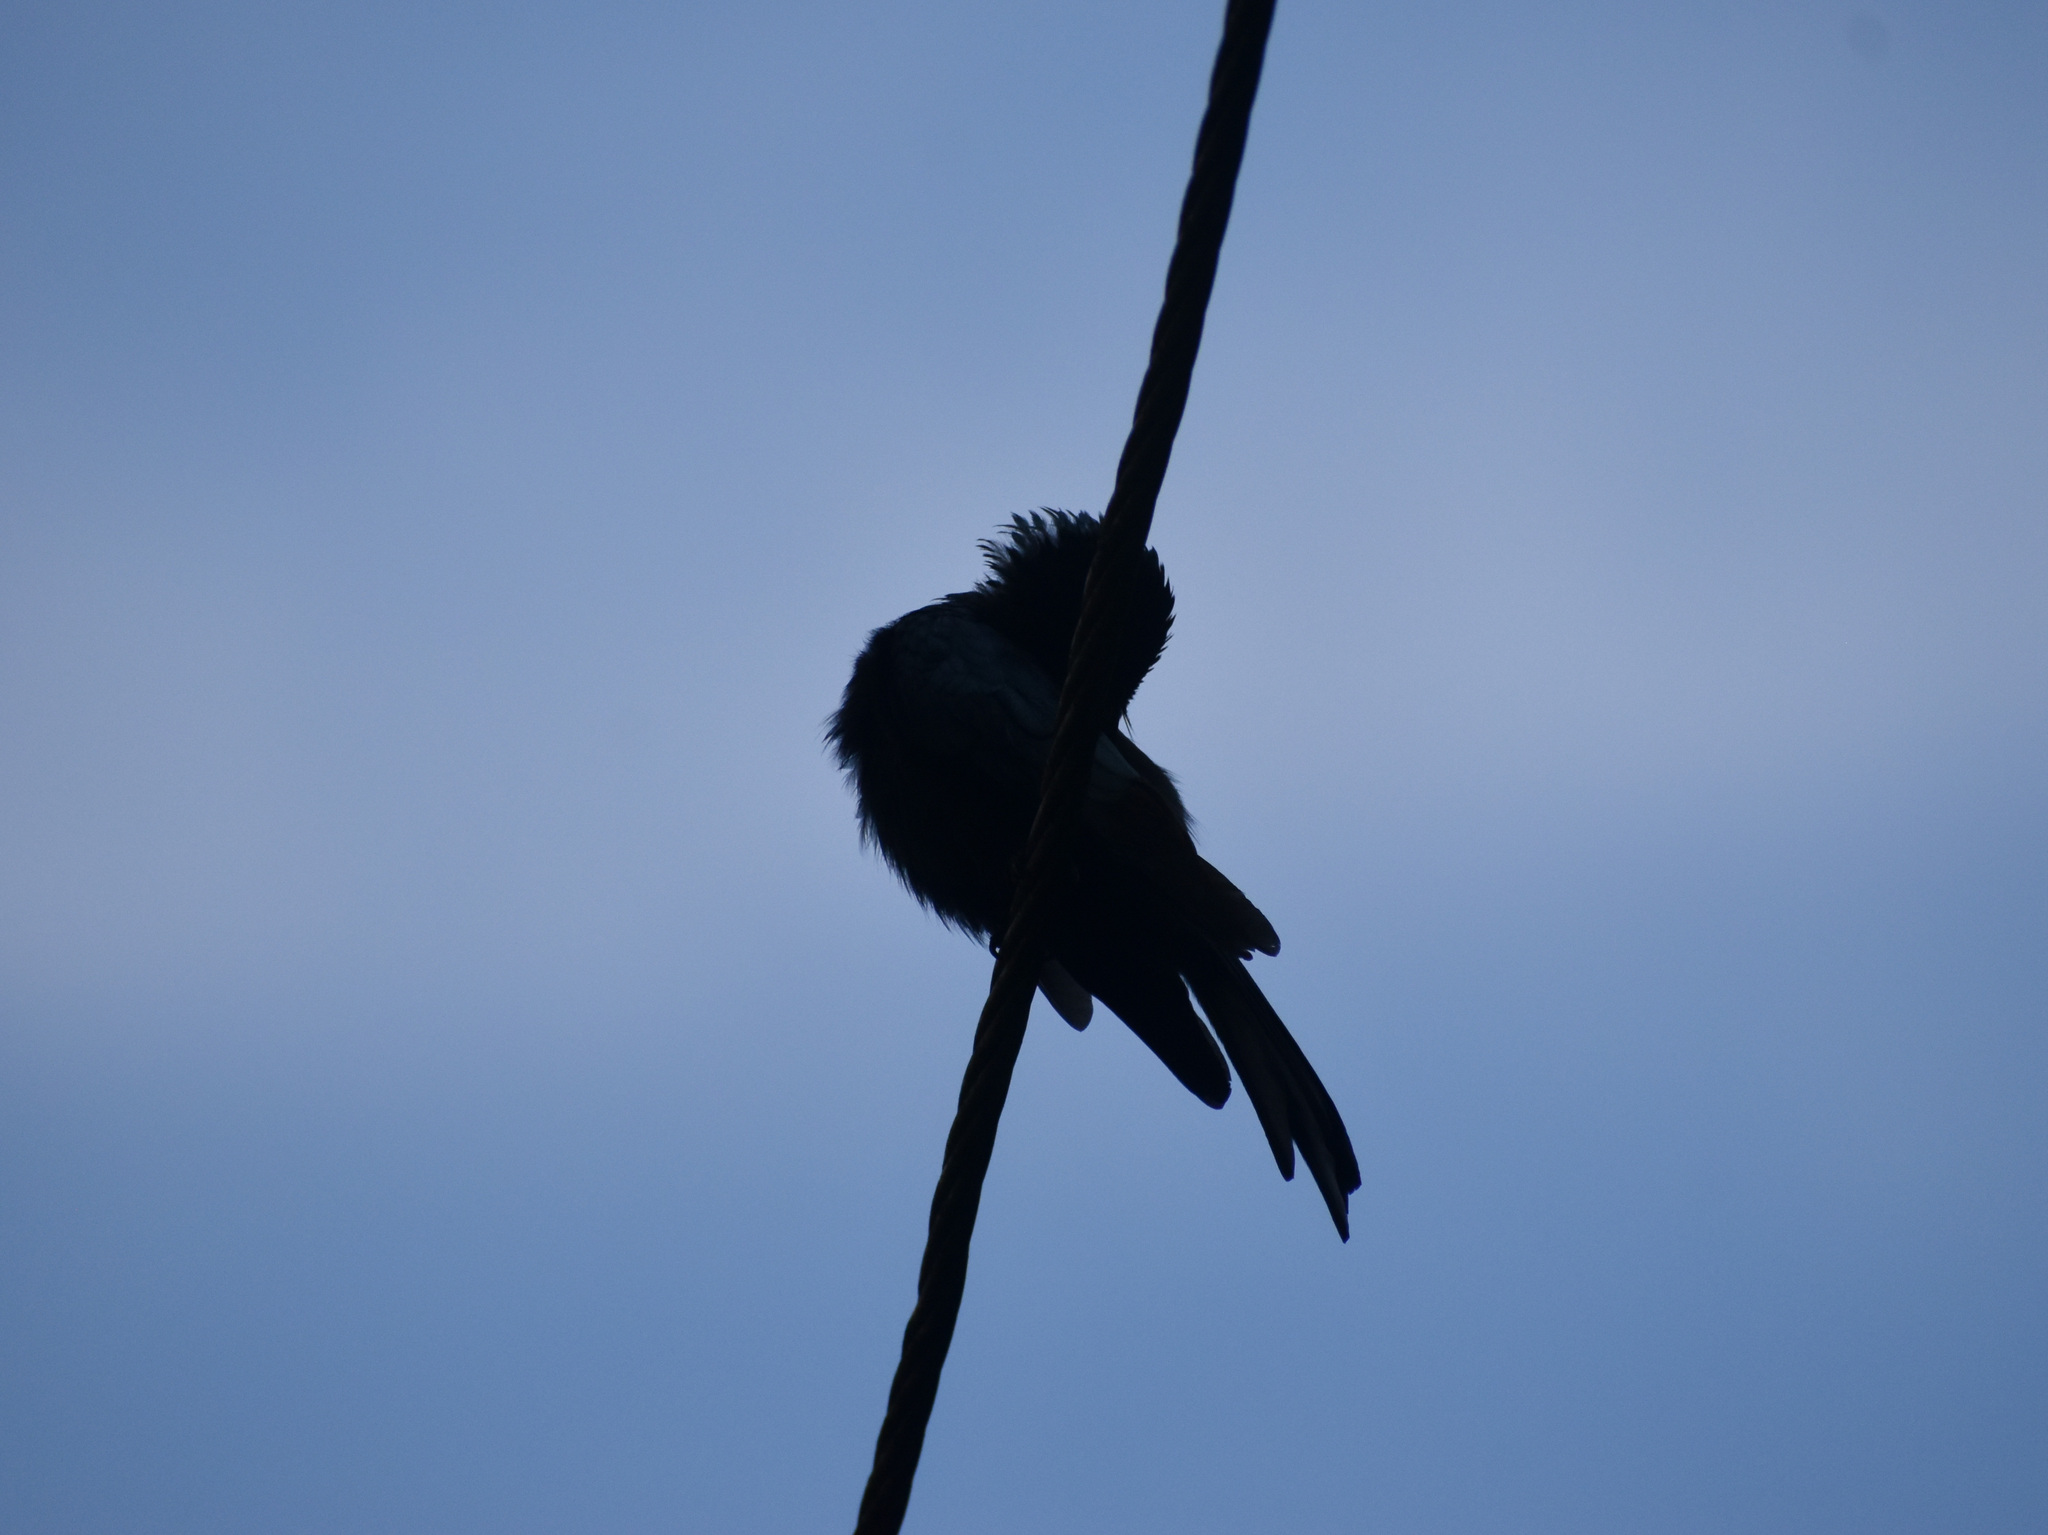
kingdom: Animalia
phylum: Chordata
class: Aves
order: Passeriformes
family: Dicruridae
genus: Dicrurus
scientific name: Dicrurus aeneus
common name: Bronzed drongo
